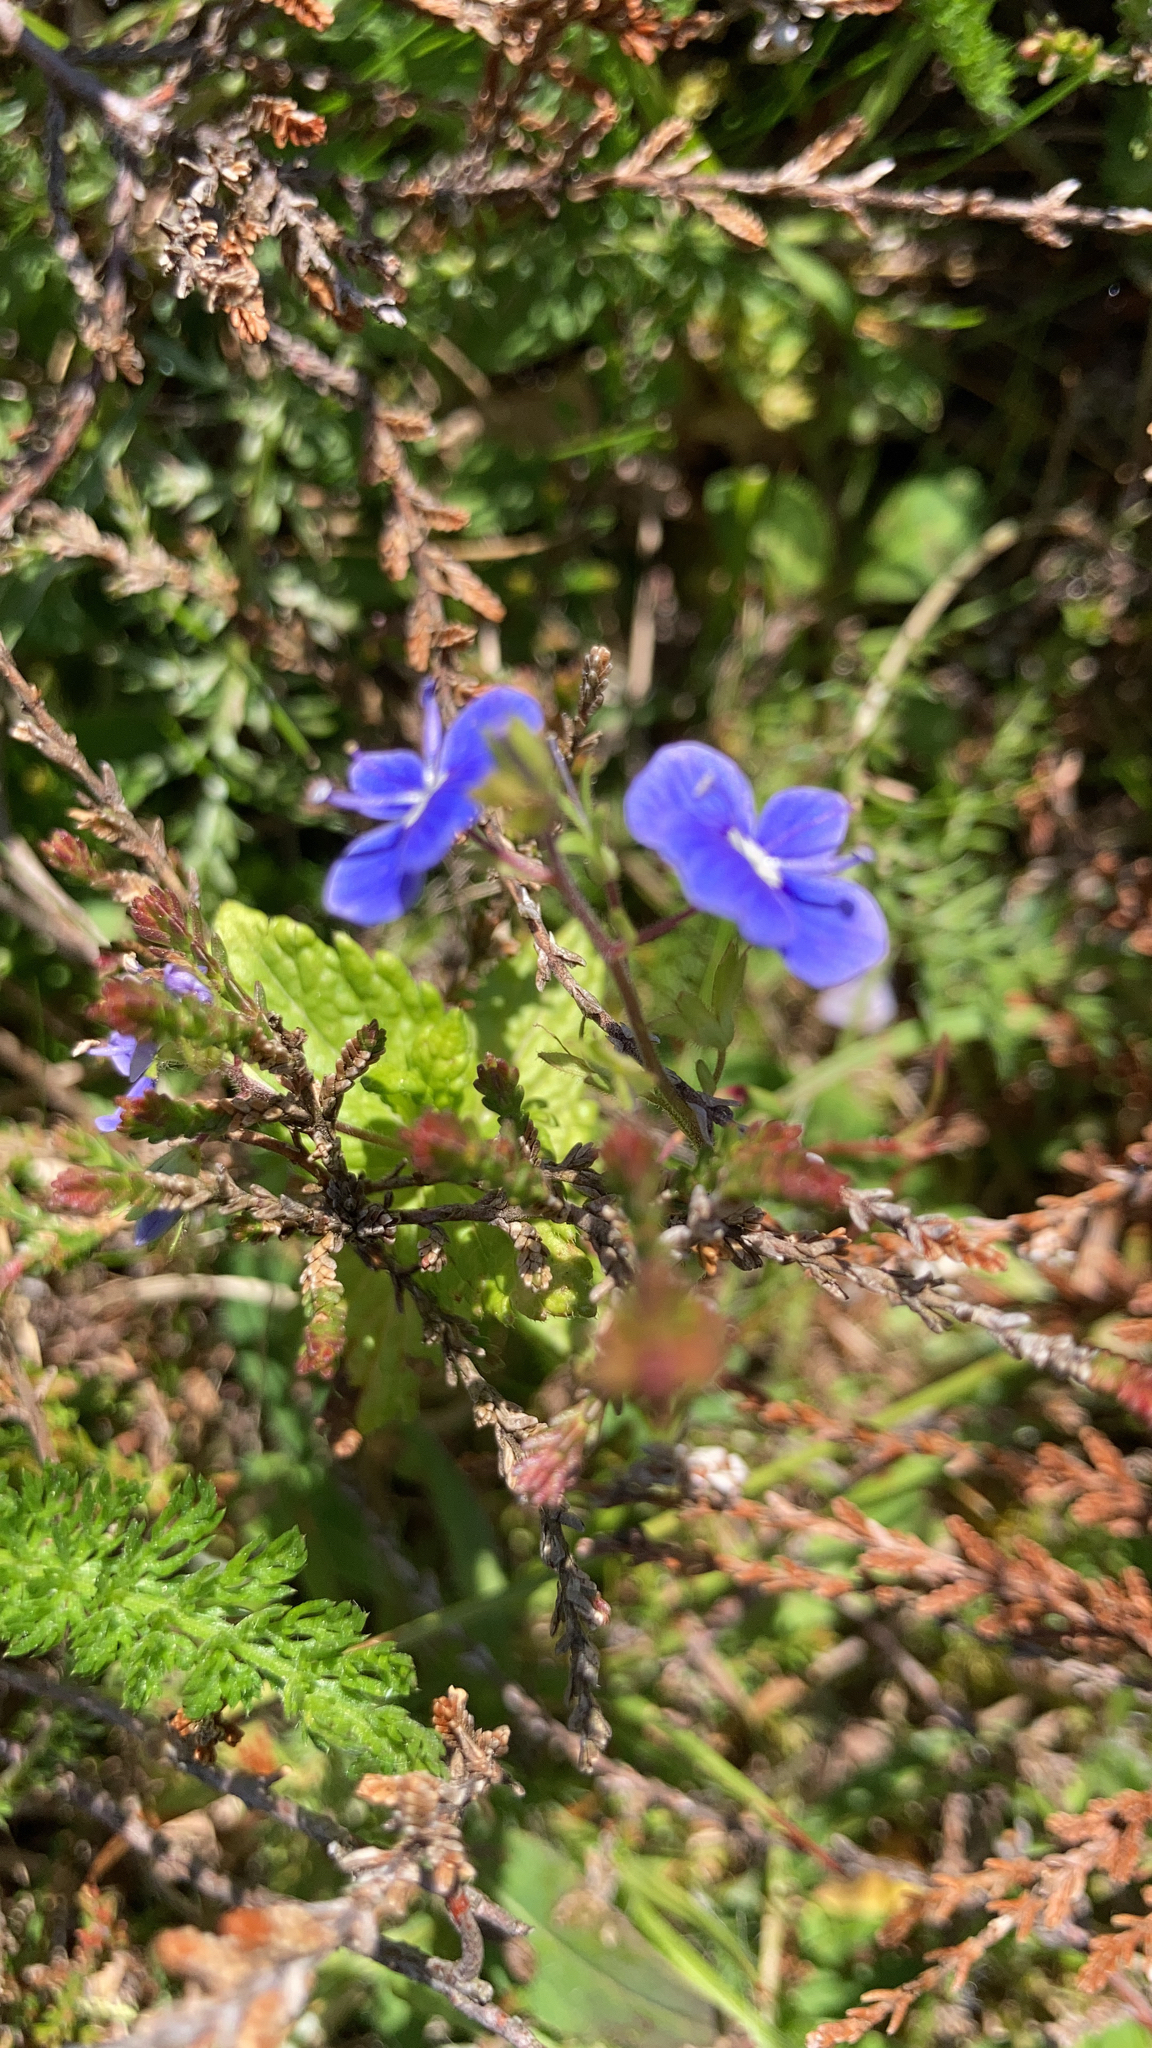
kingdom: Plantae
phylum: Tracheophyta
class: Magnoliopsida
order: Lamiales
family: Plantaginaceae
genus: Veronica
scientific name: Veronica chamaedrys
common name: Germander speedwell
